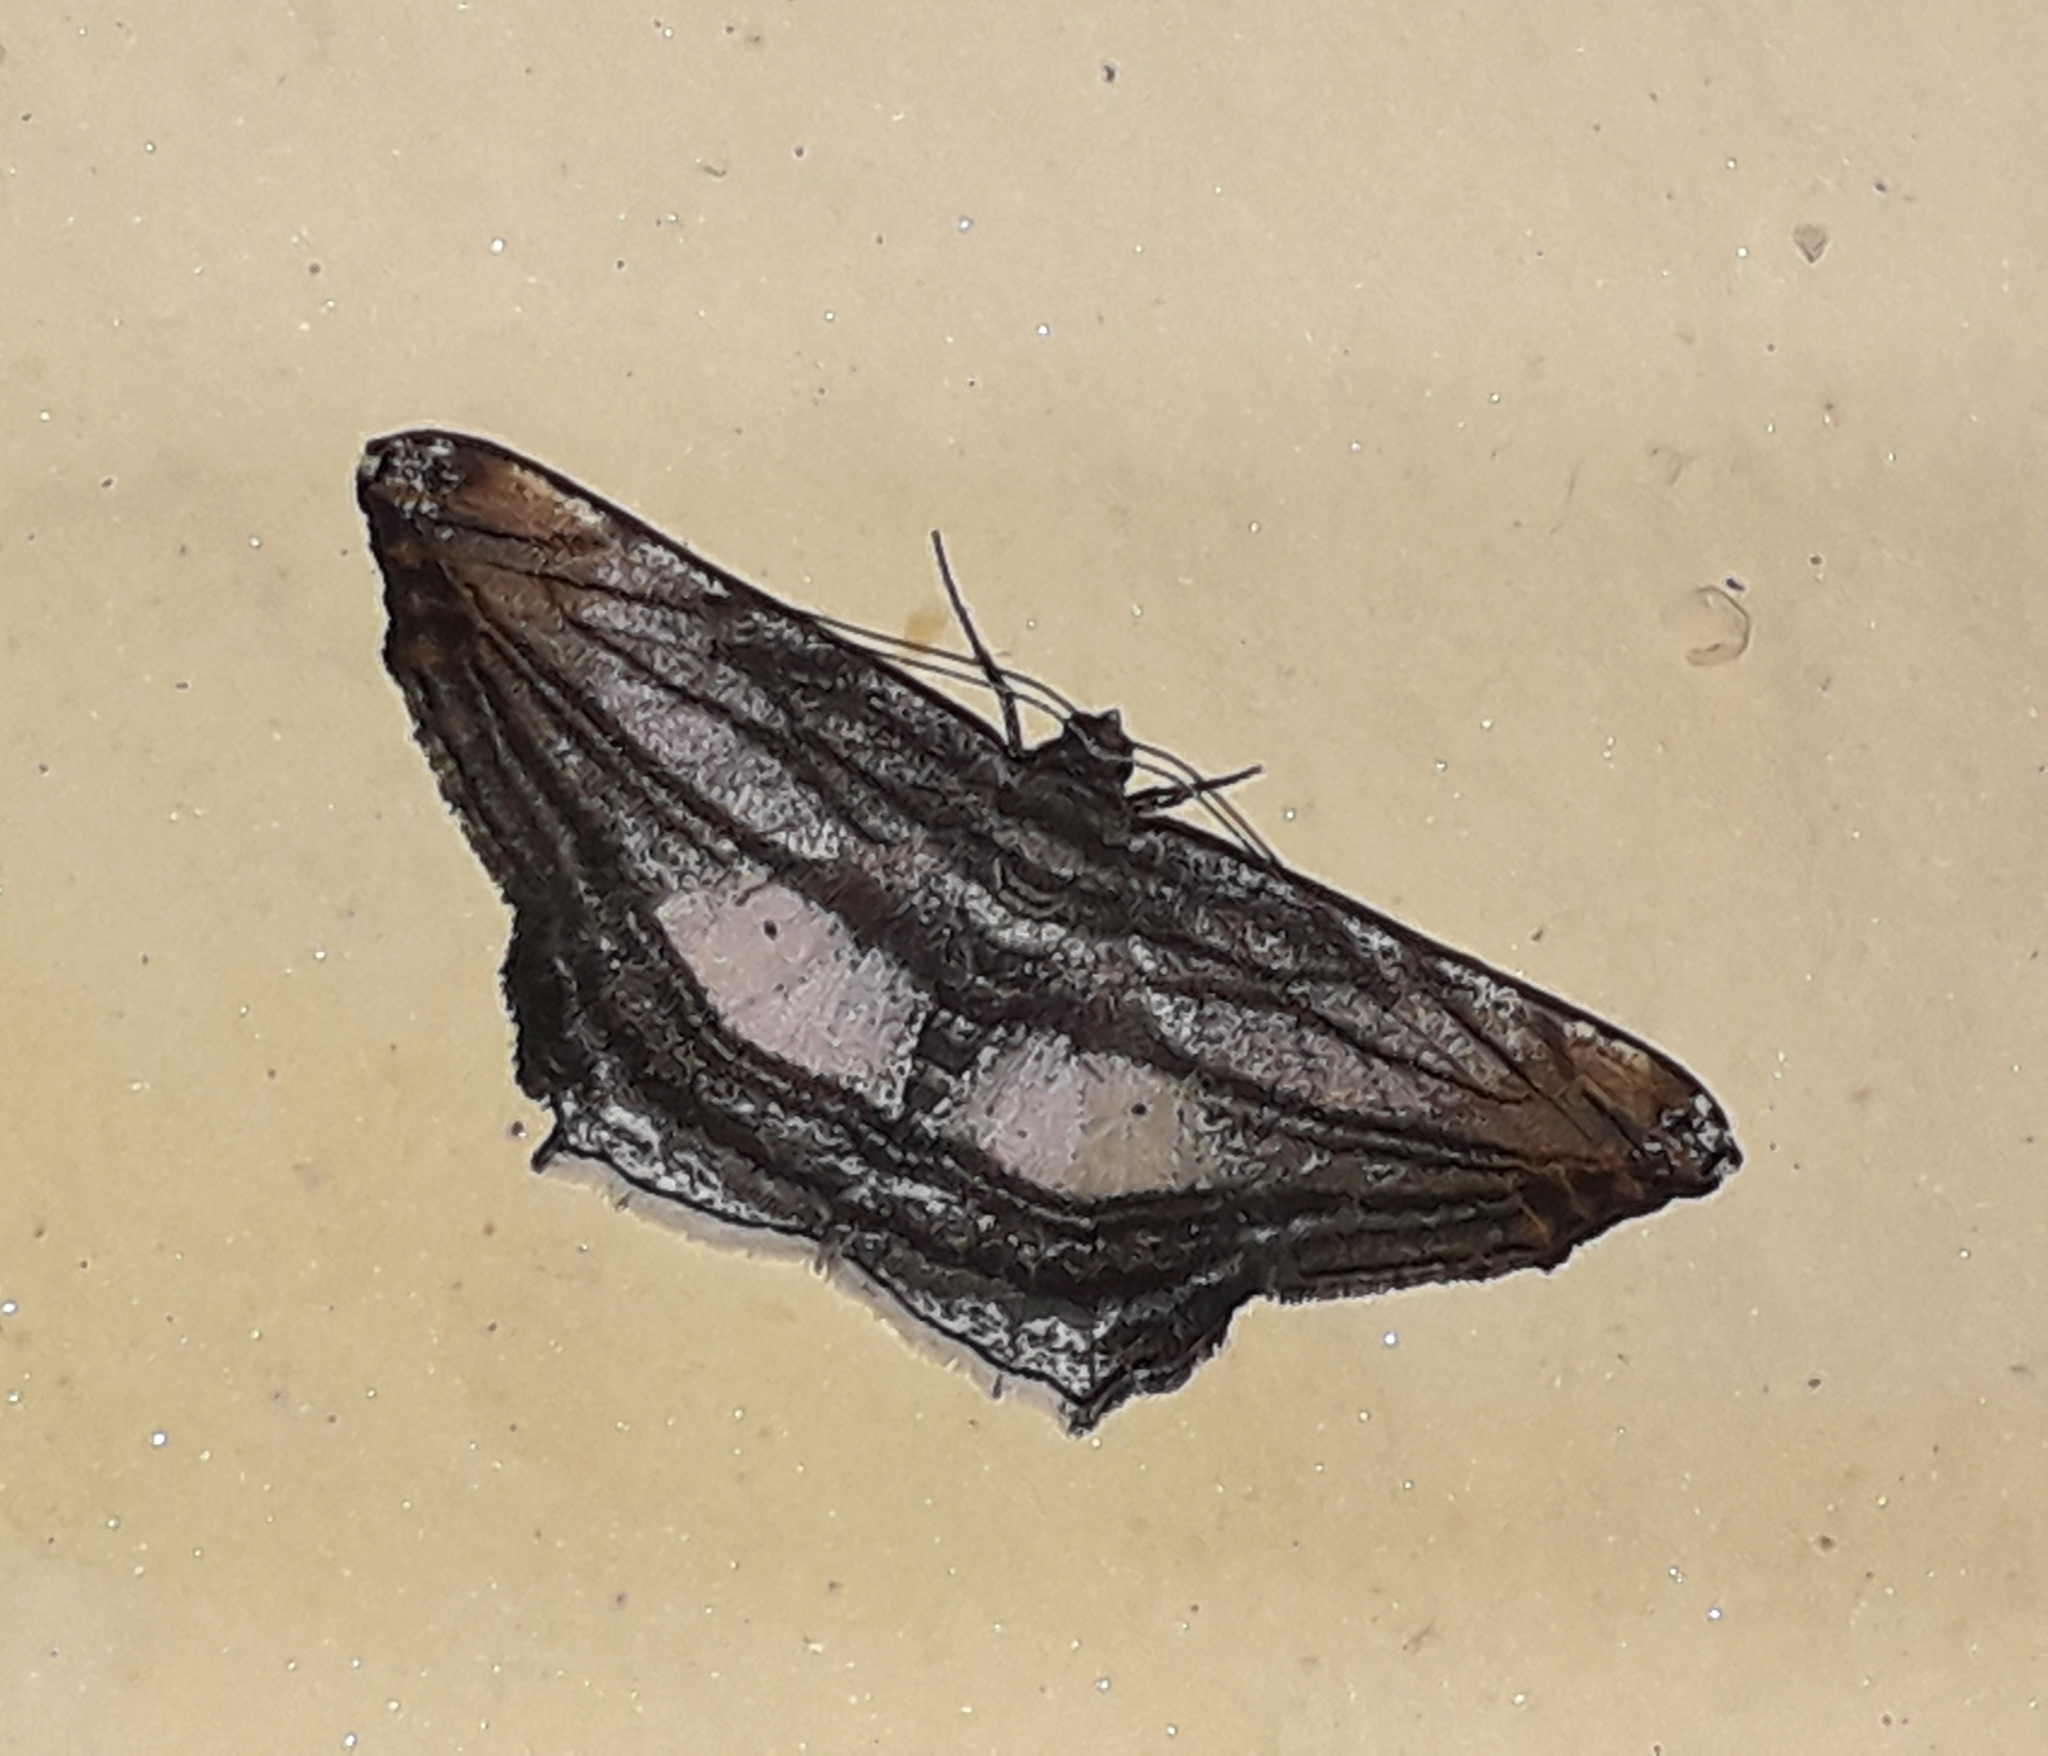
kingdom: Animalia
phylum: Arthropoda
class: Insecta
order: Lepidoptera
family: Geometridae
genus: Chiasmia
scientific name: Chiasmia fulvisparsa
